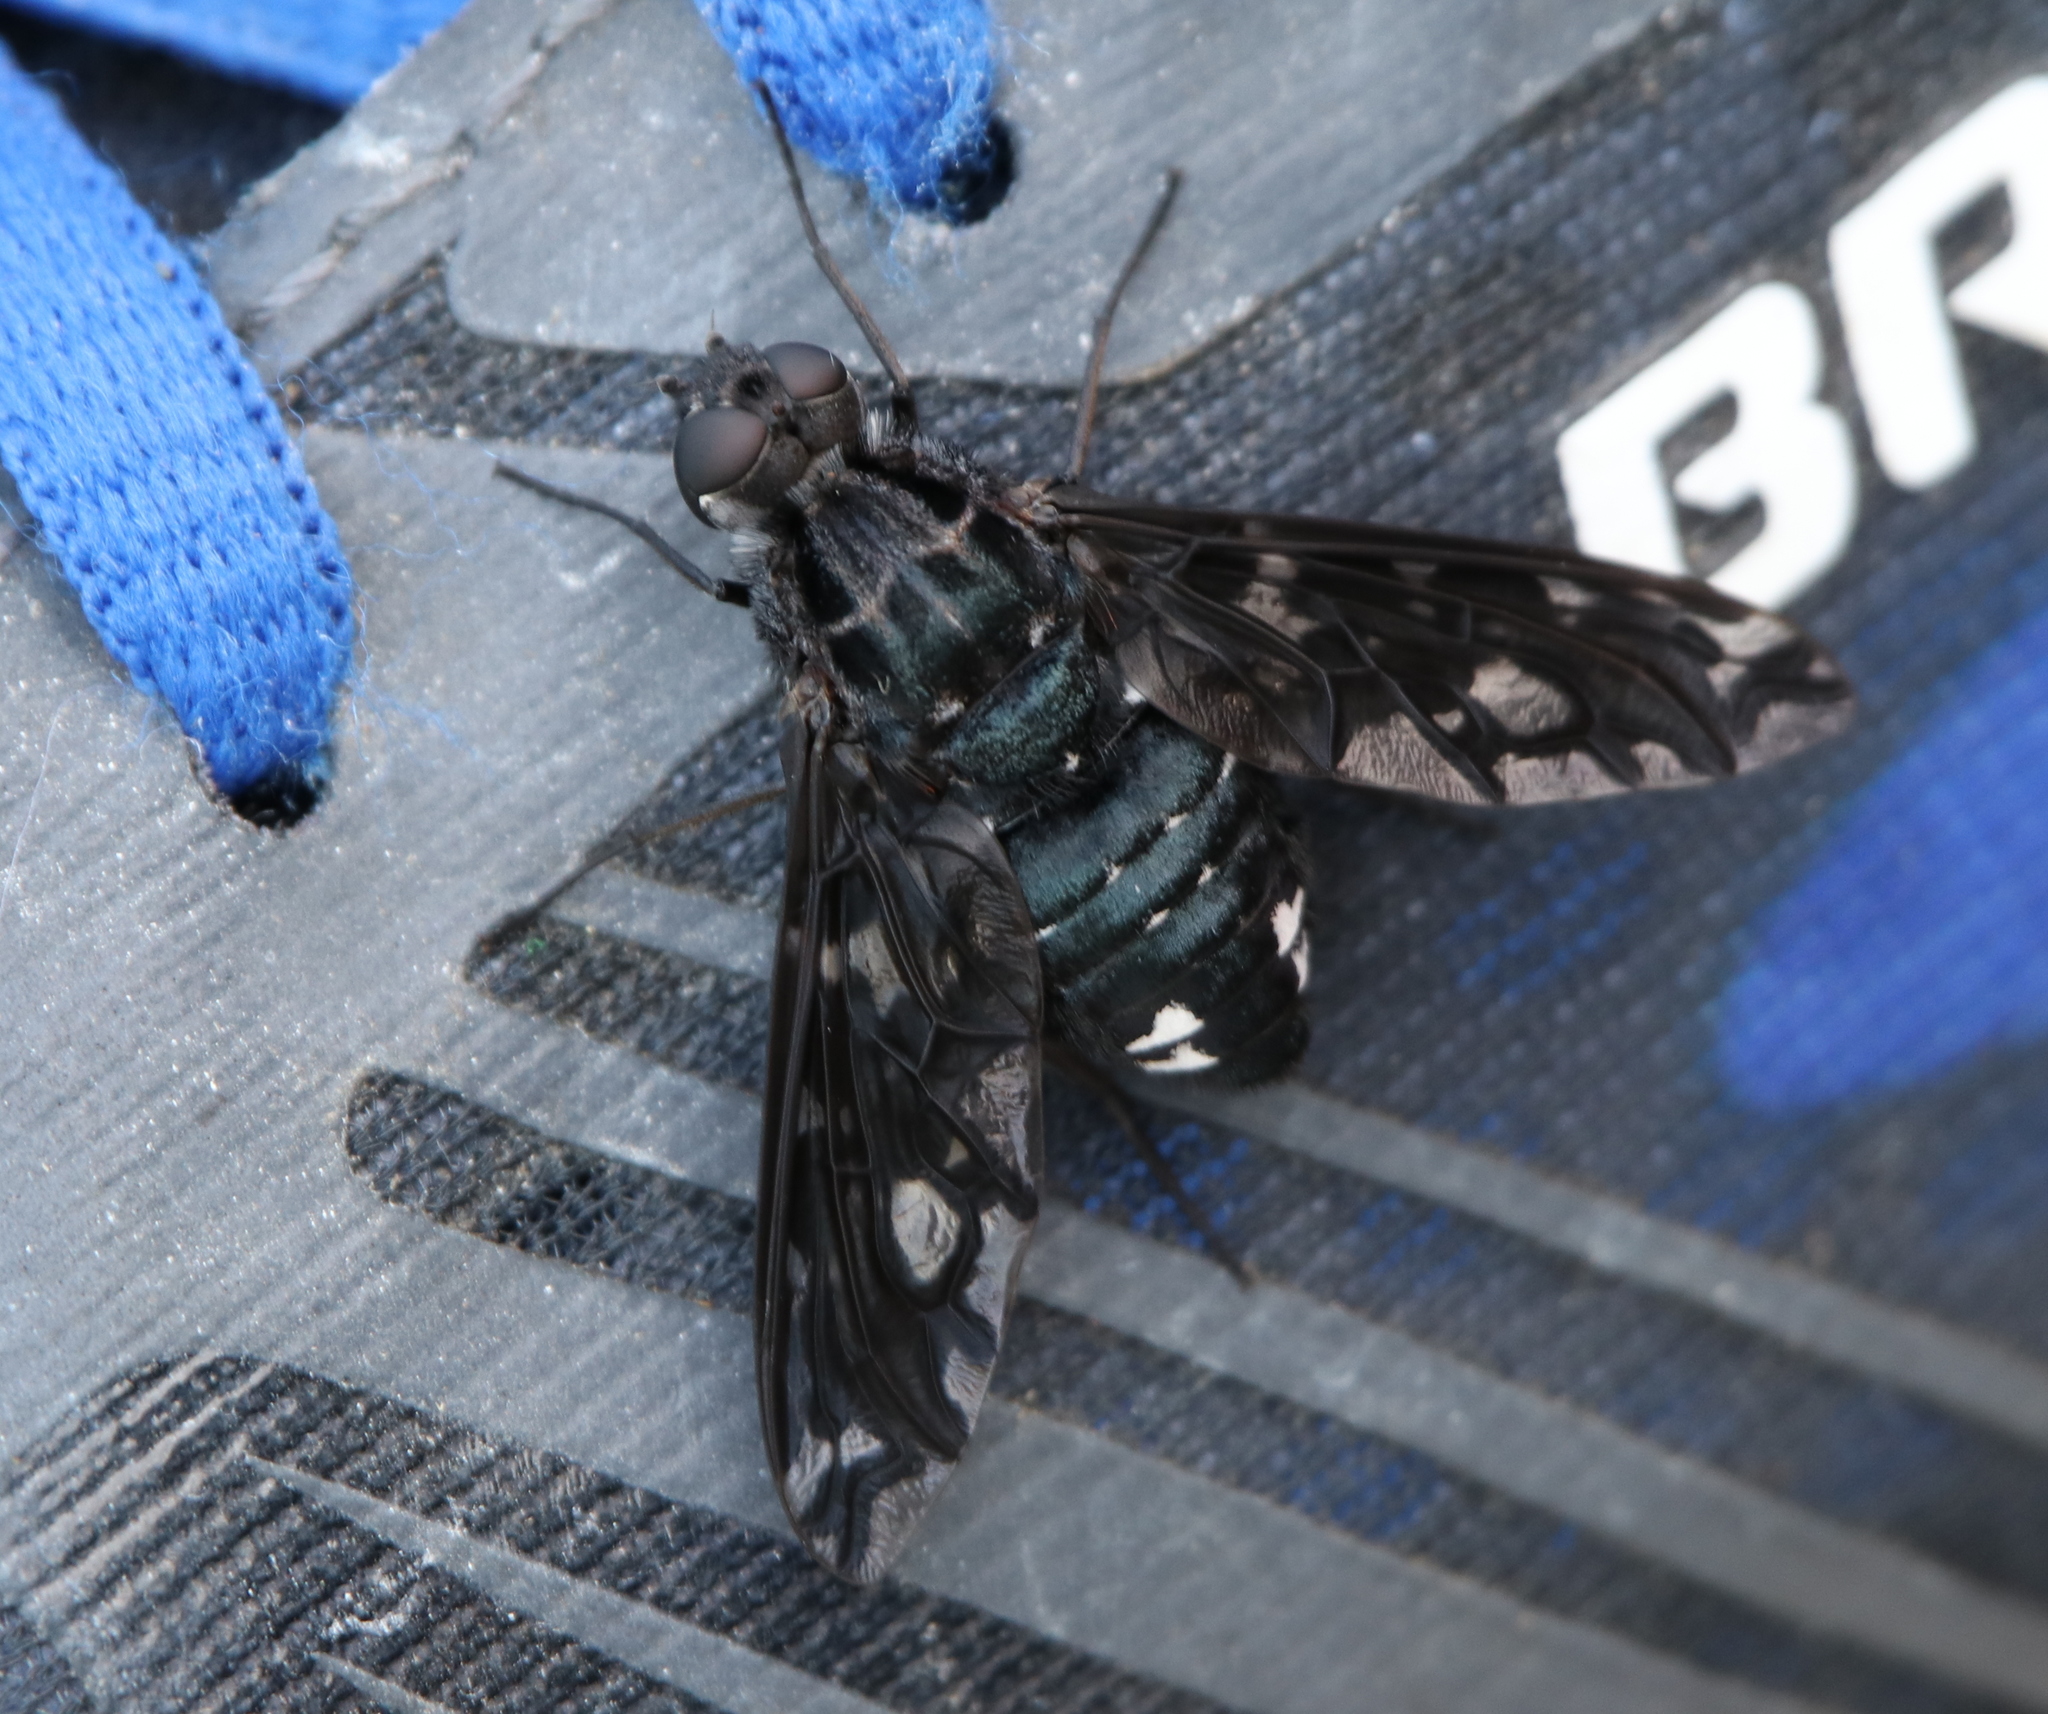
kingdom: Animalia
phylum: Arthropoda
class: Insecta
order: Diptera
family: Bombyliidae
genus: Xenox
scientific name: Xenox tigrinus
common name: Tiger bee fly
